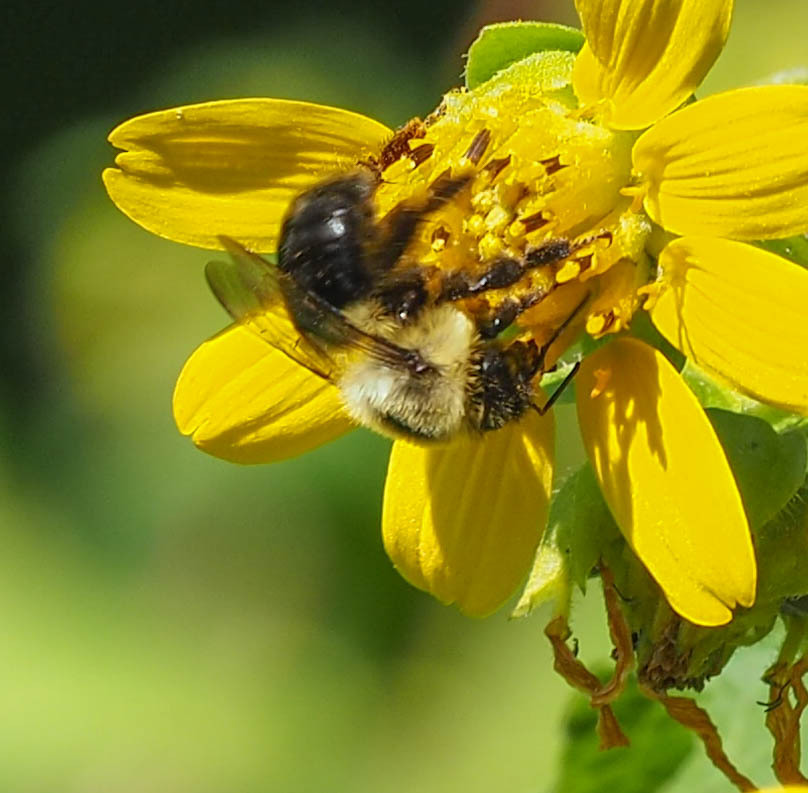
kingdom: Animalia
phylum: Arthropoda
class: Insecta
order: Hymenoptera
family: Apidae
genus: Bombus
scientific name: Bombus impatiens
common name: Common eastern bumble bee
